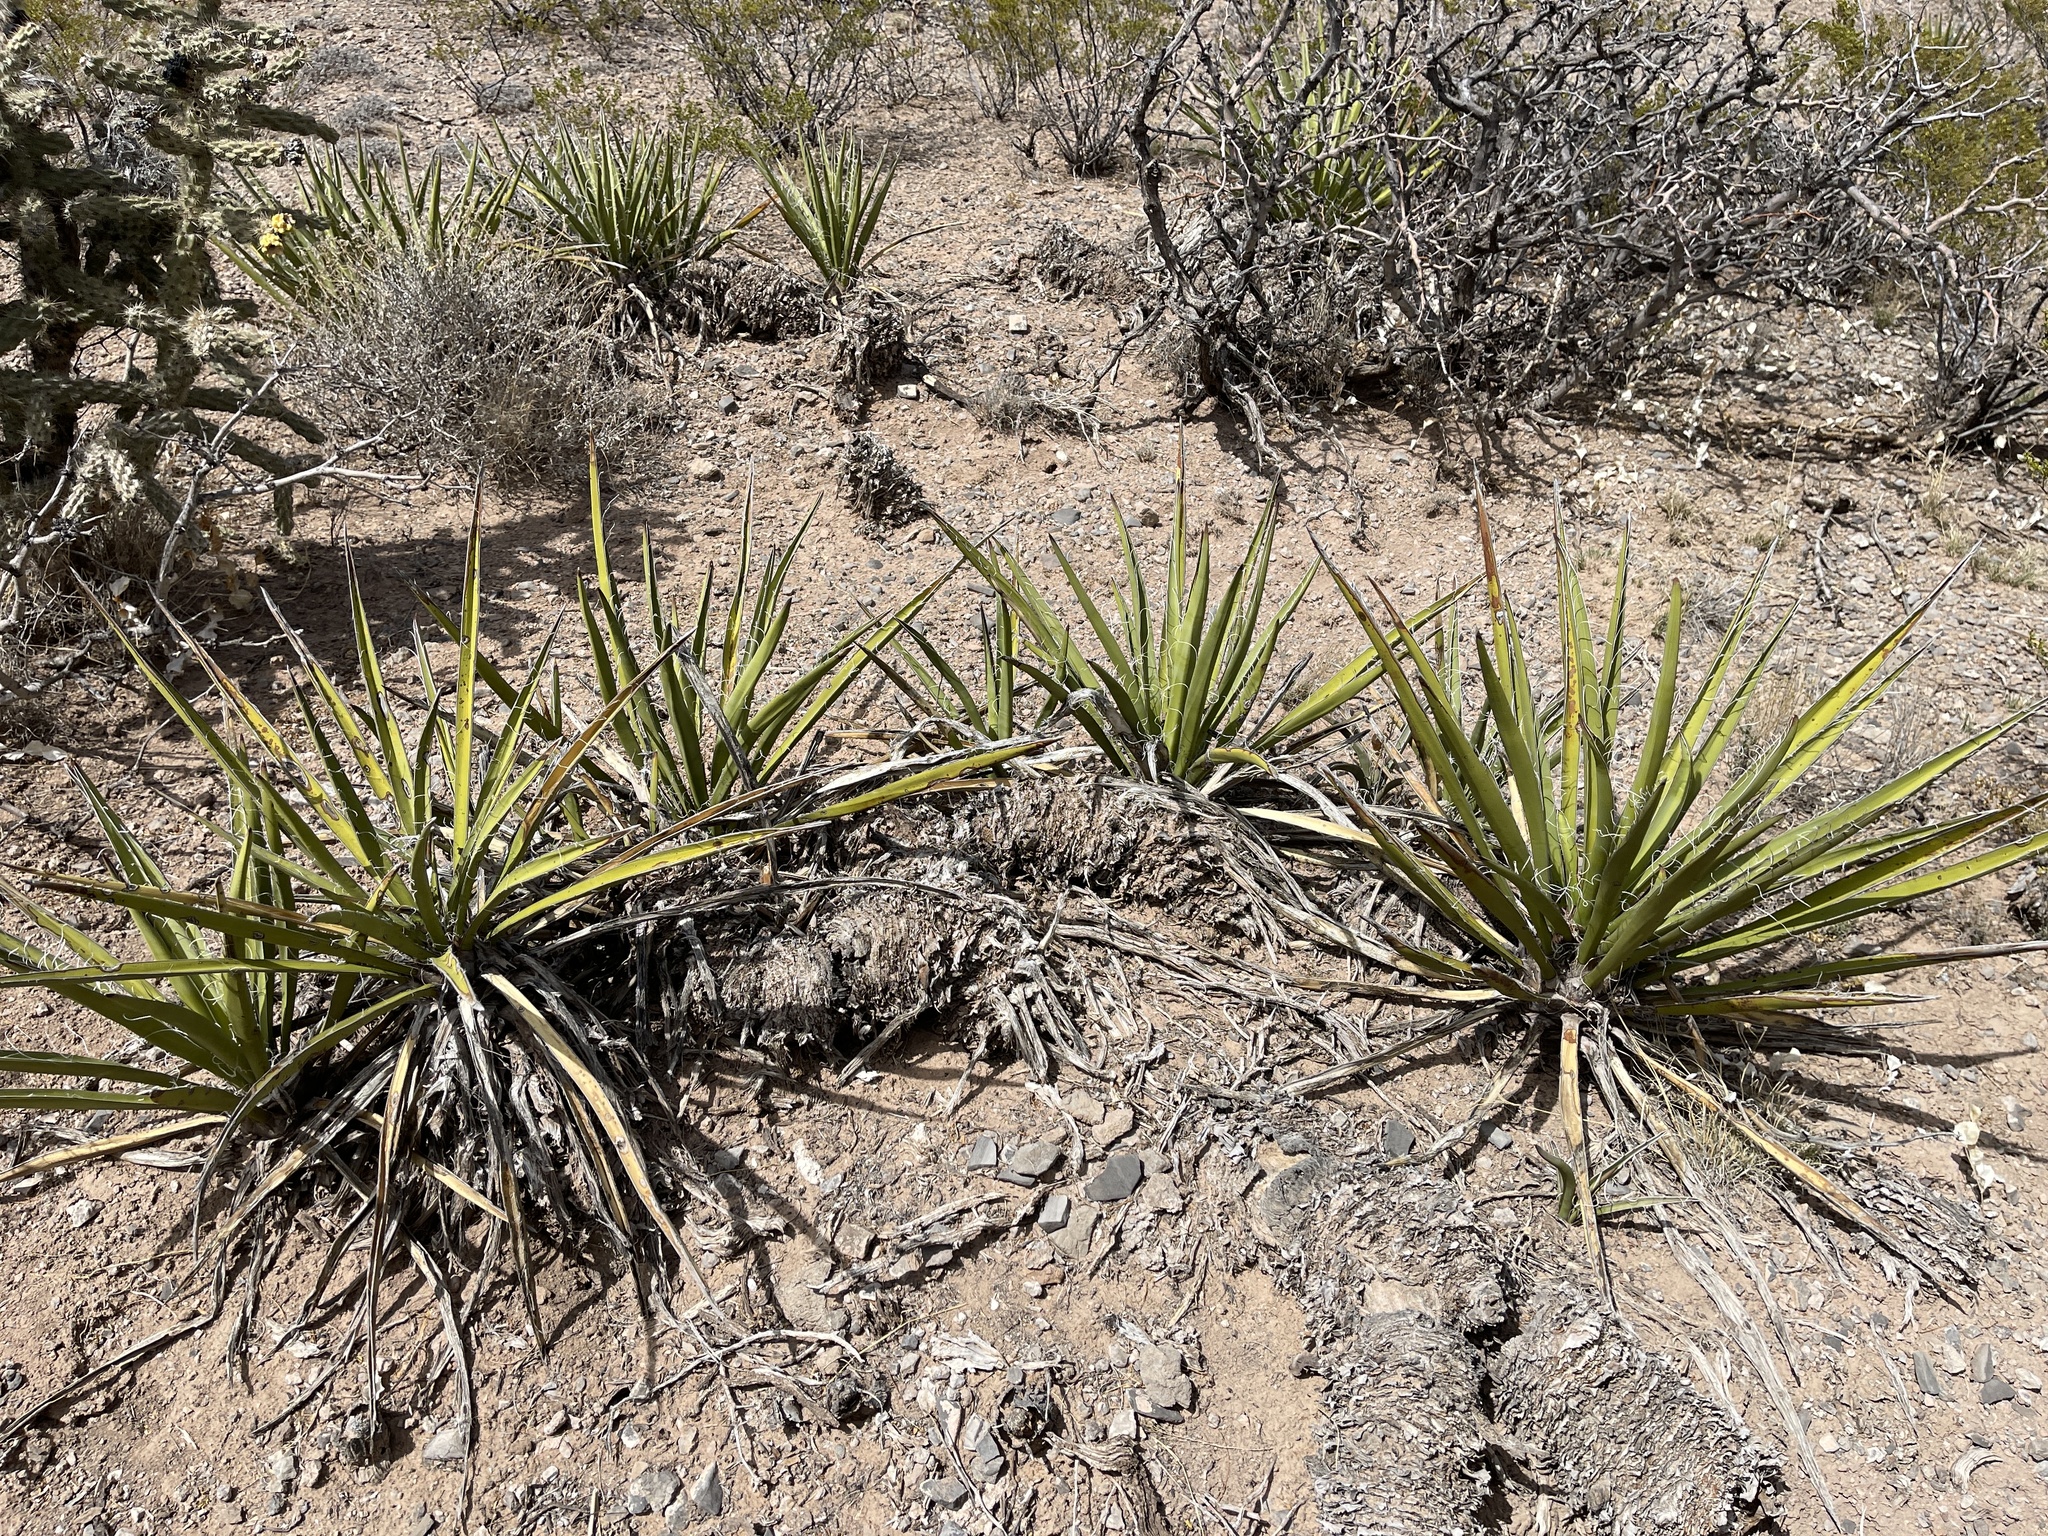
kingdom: Plantae
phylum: Tracheophyta
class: Liliopsida
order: Asparagales
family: Asparagaceae
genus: Yucca
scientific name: Yucca baccata
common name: Banana yucca
